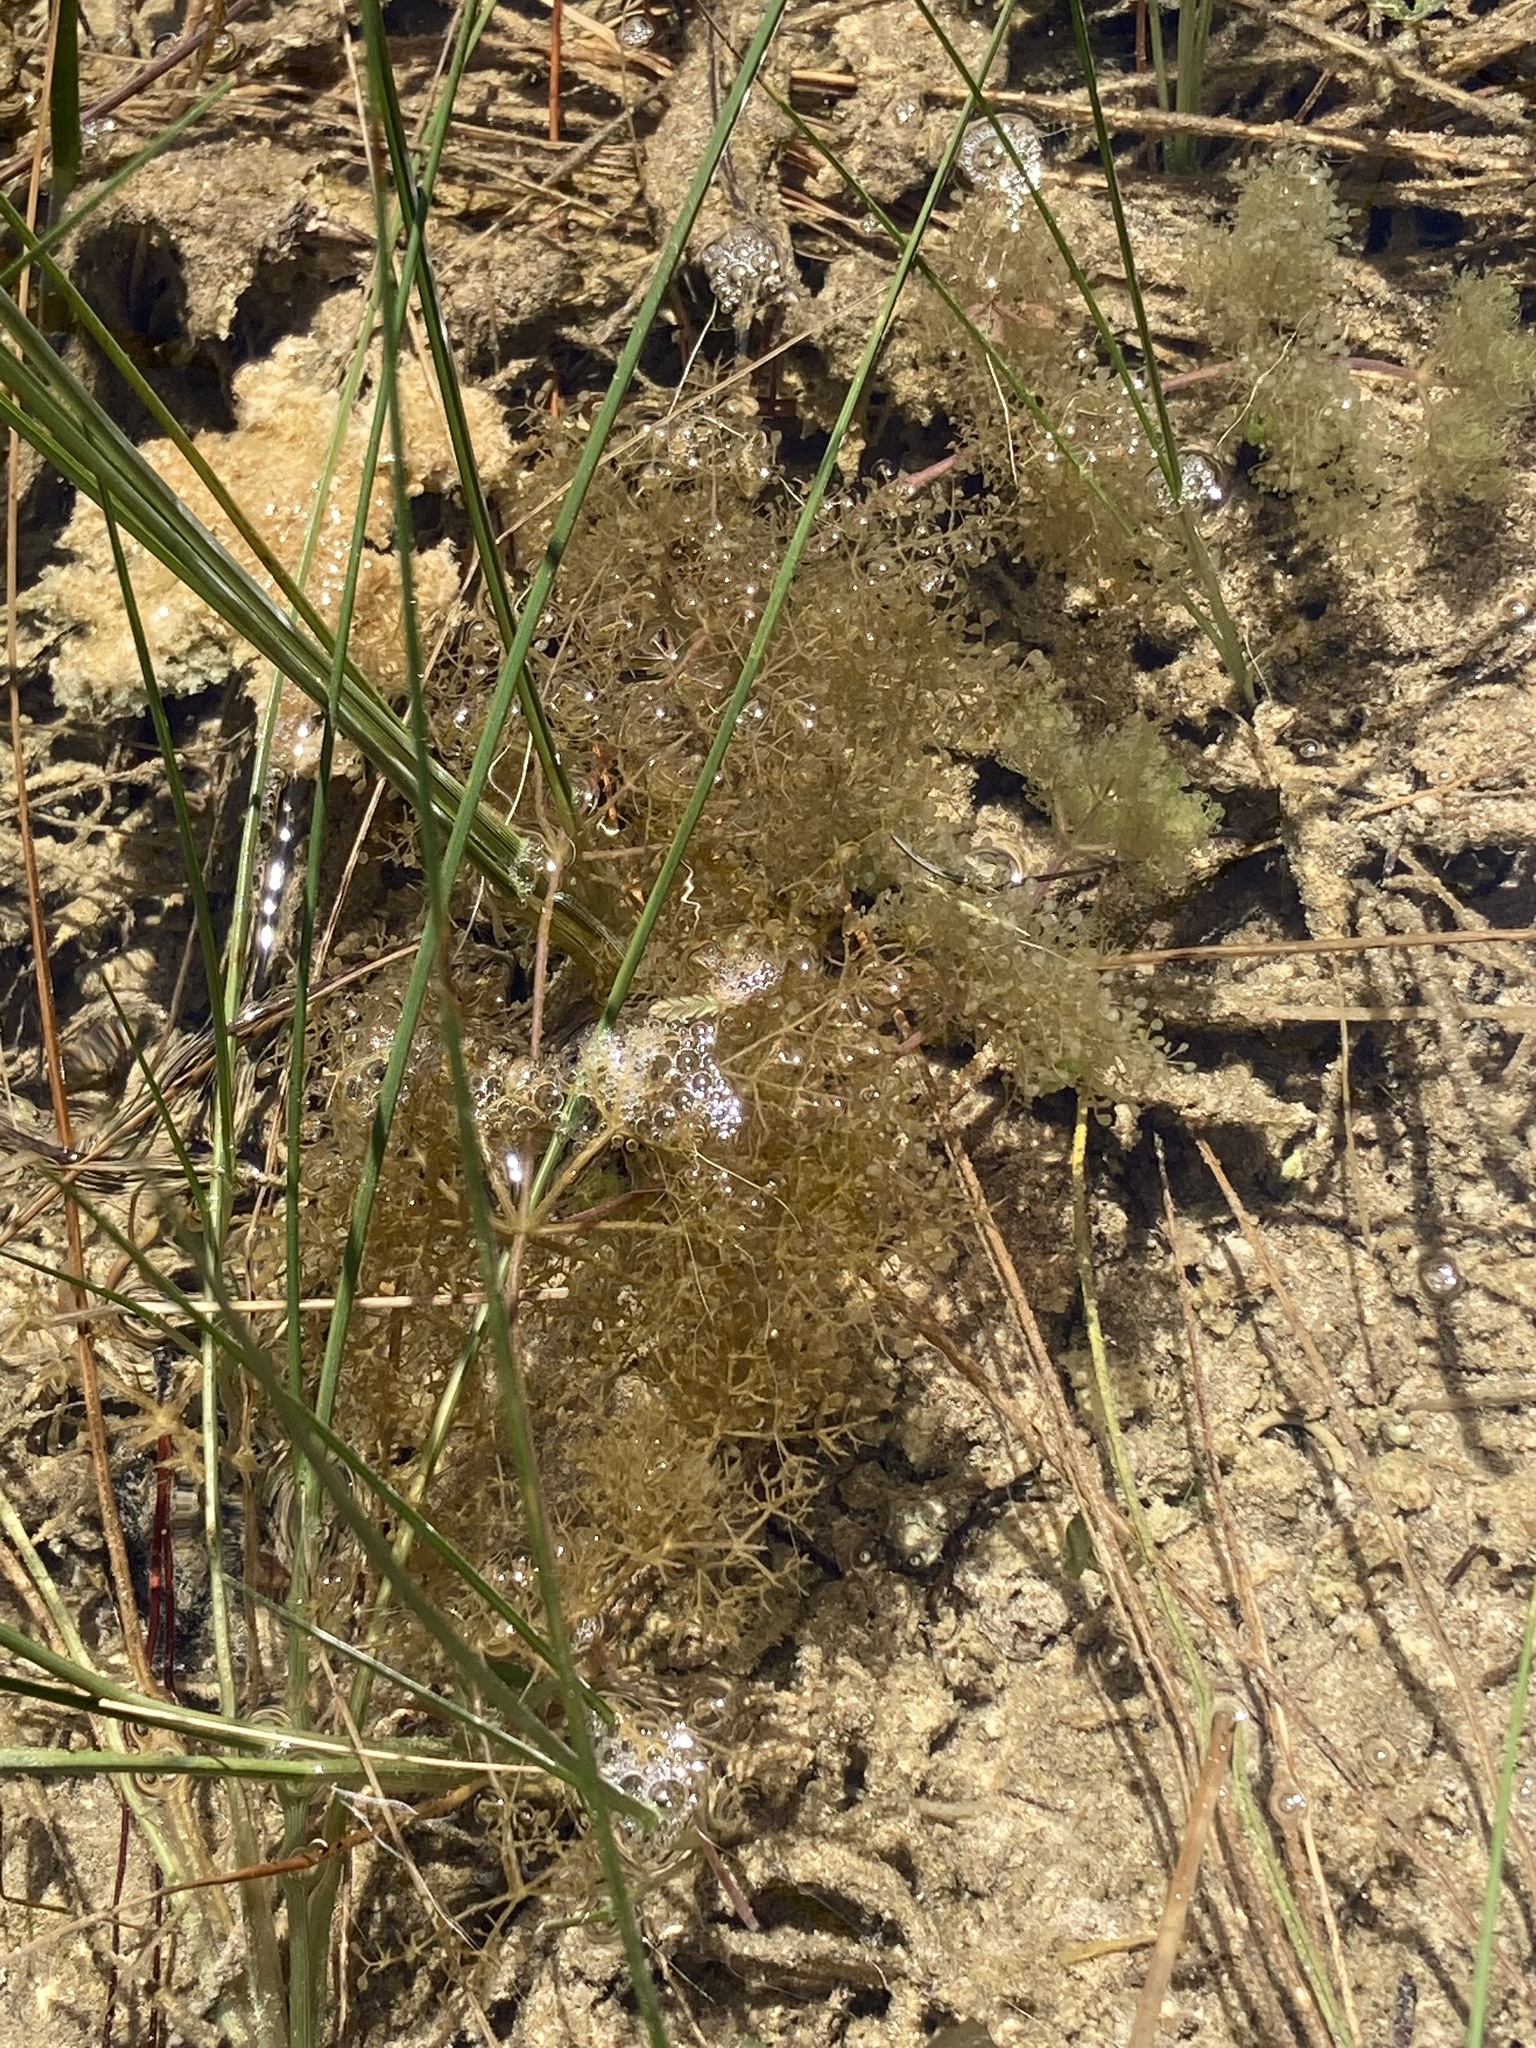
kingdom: Plantae
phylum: Tracheophyta
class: Magnoliopsida
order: Lamiales
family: Lentibulariaceae
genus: Utricularia
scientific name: Utricularia purpurea
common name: Eastern purple bladderwort
